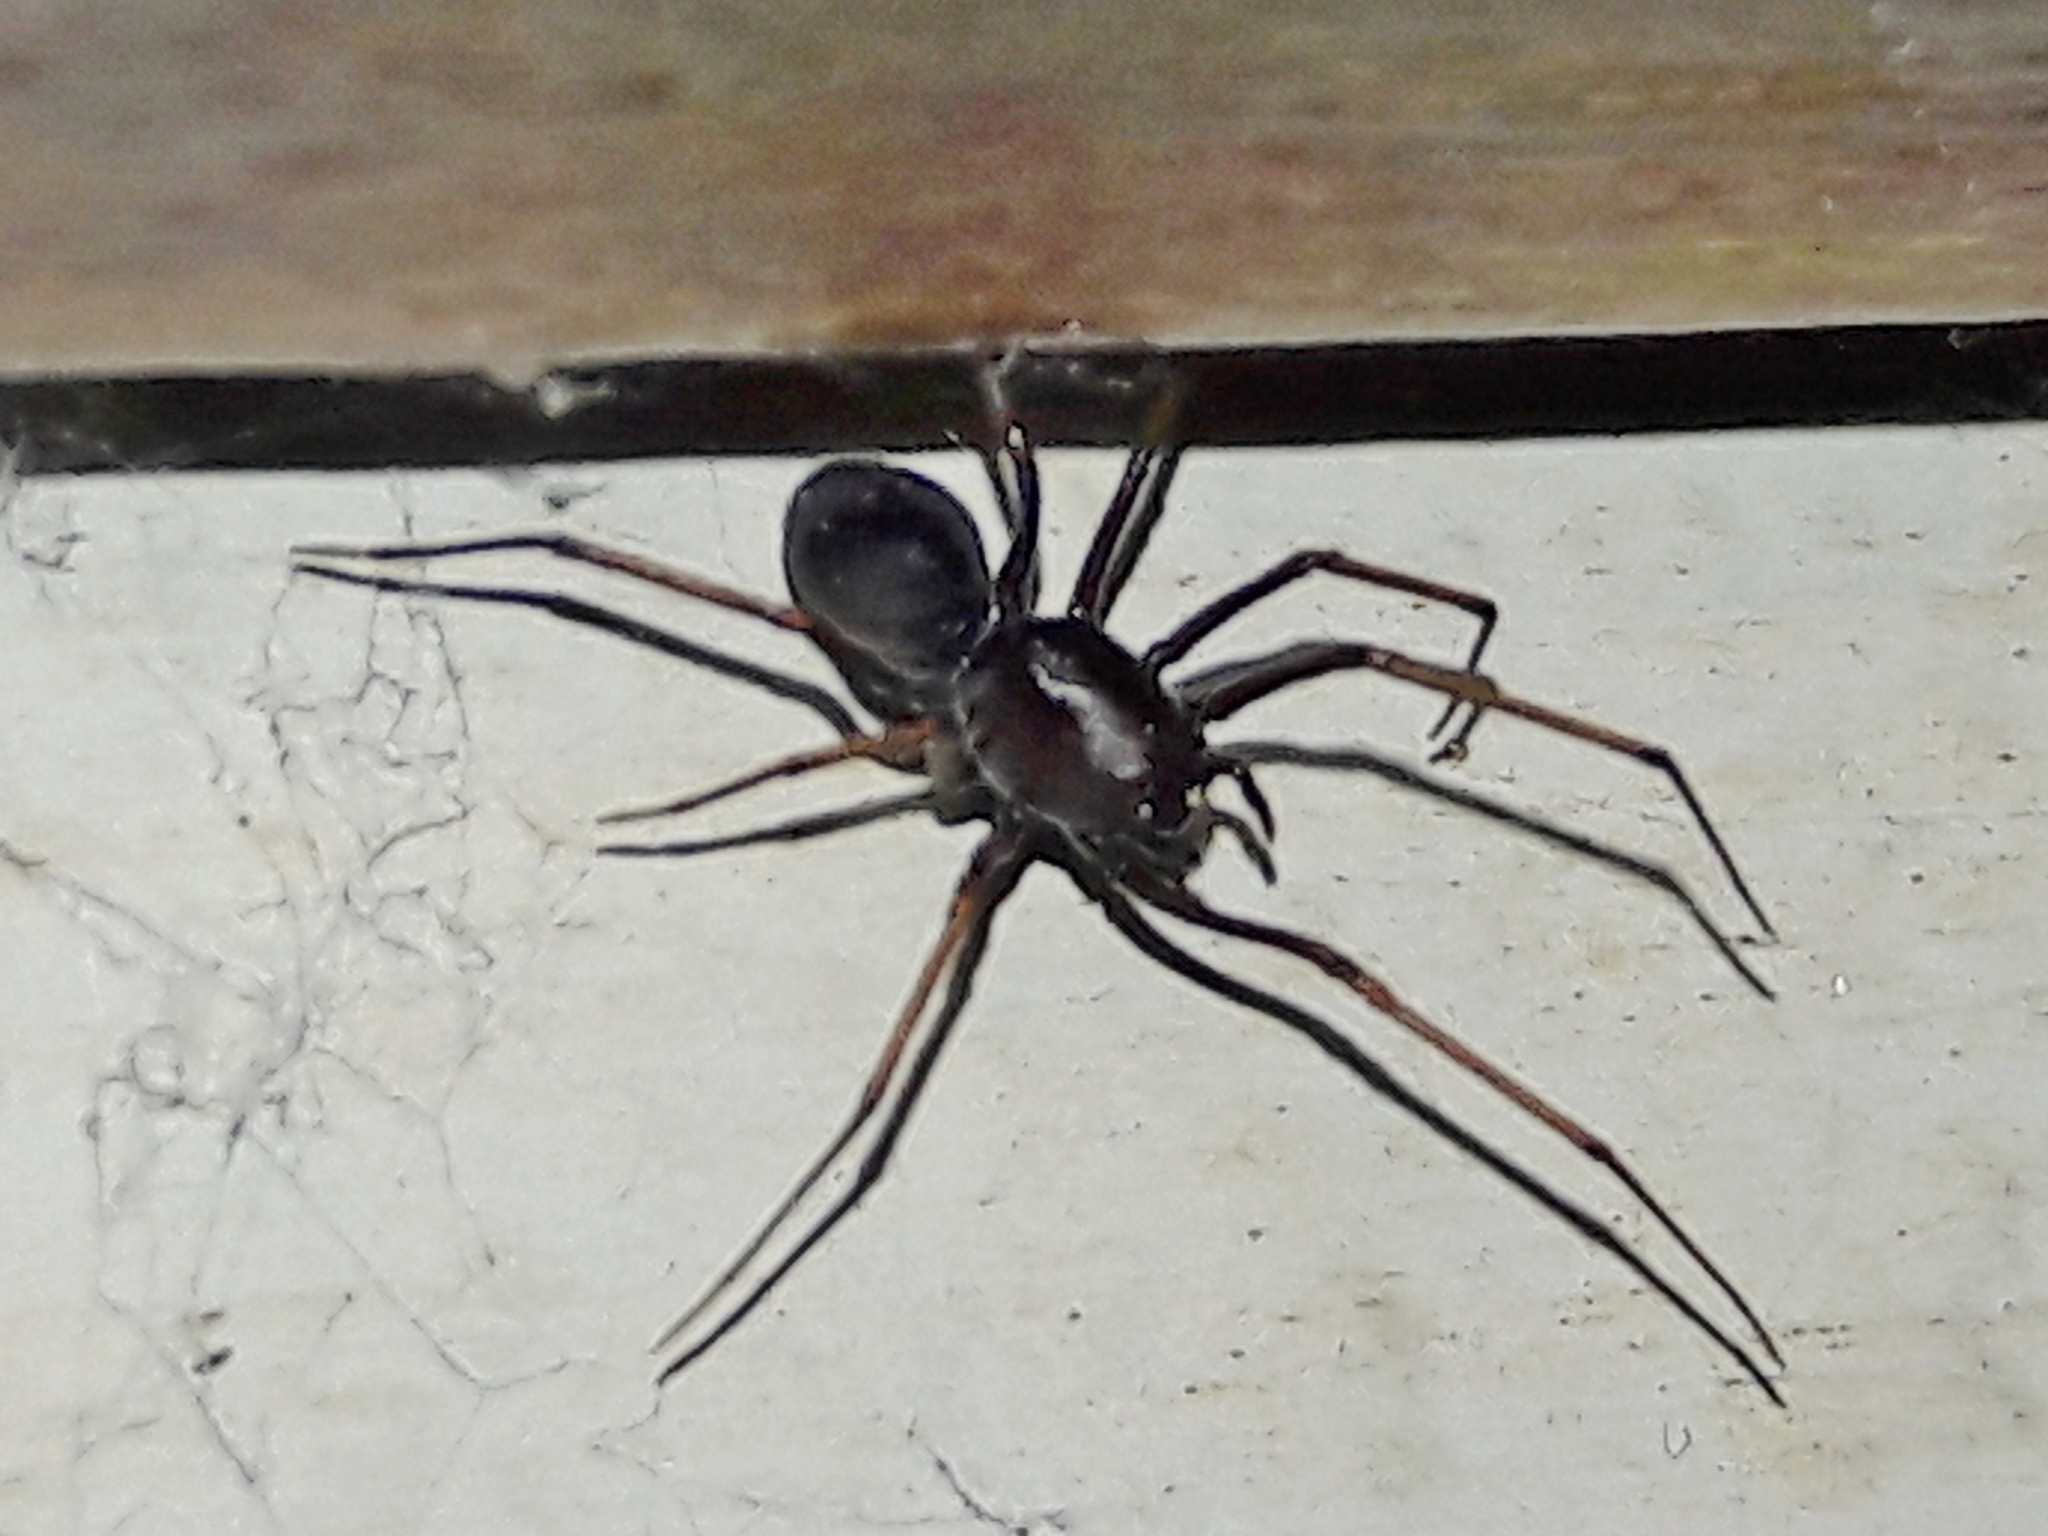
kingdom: Animalia
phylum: Arthropoda
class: Arachnida
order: Araneae
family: Scytodidae
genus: Scytodes
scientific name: Scytodes fusca
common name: Spitting spiders
